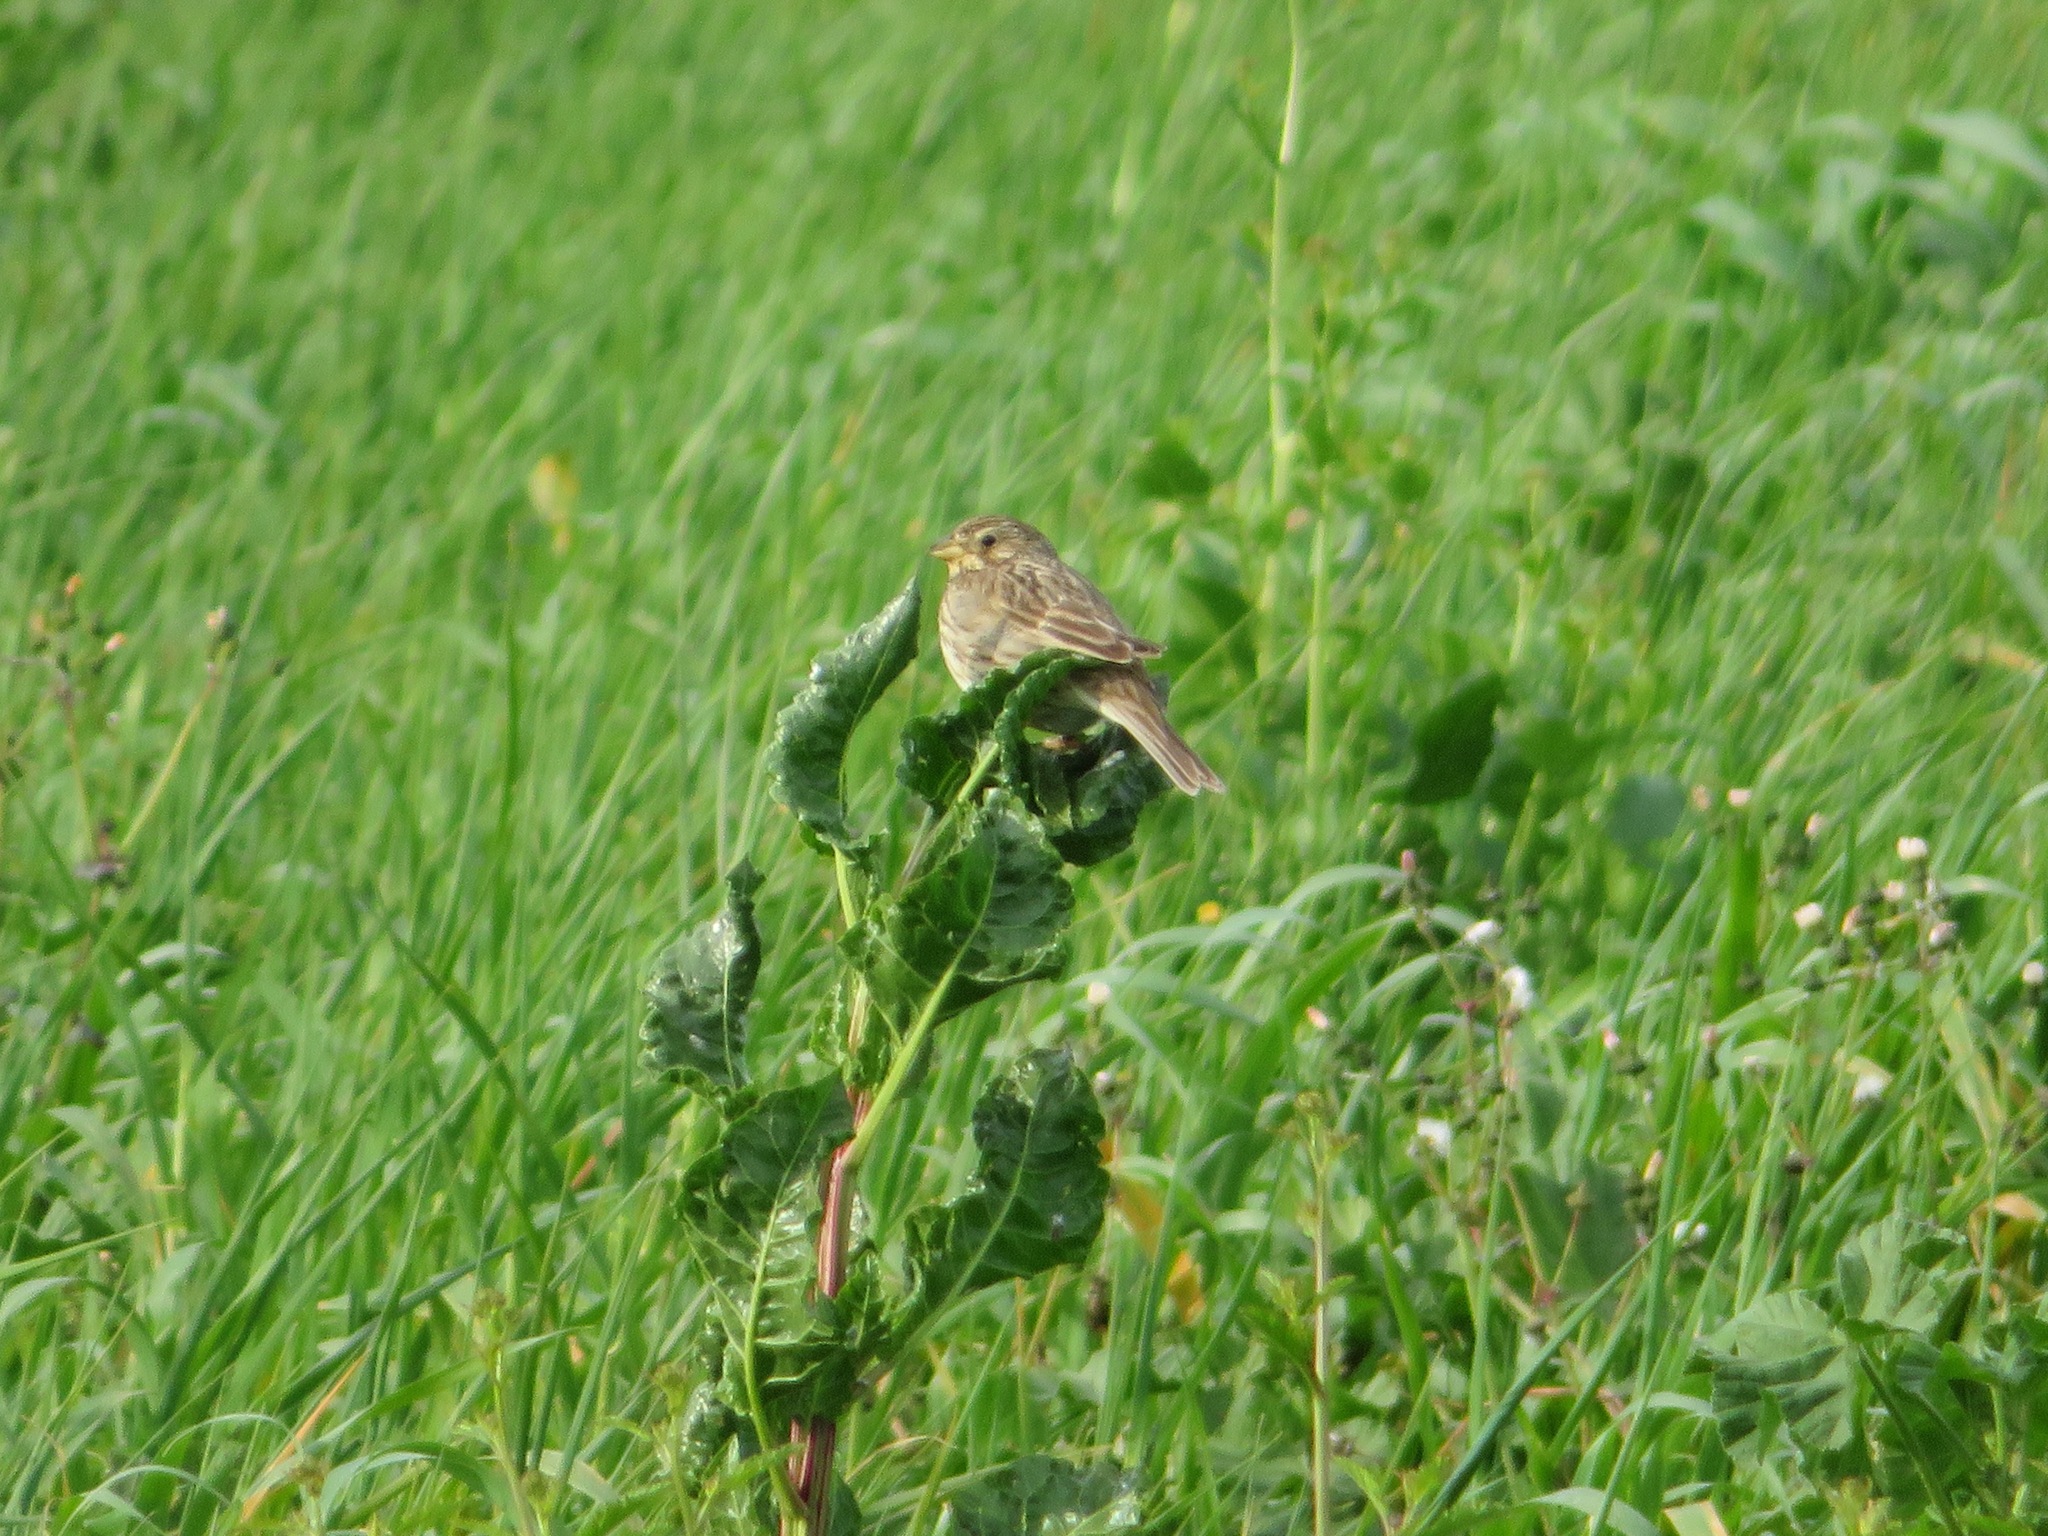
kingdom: Animalia
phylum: Chordata
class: Aves
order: Passeriformes
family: Emberizidae
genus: Emberiza
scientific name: Emberiza calandra
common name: Corn bunting
